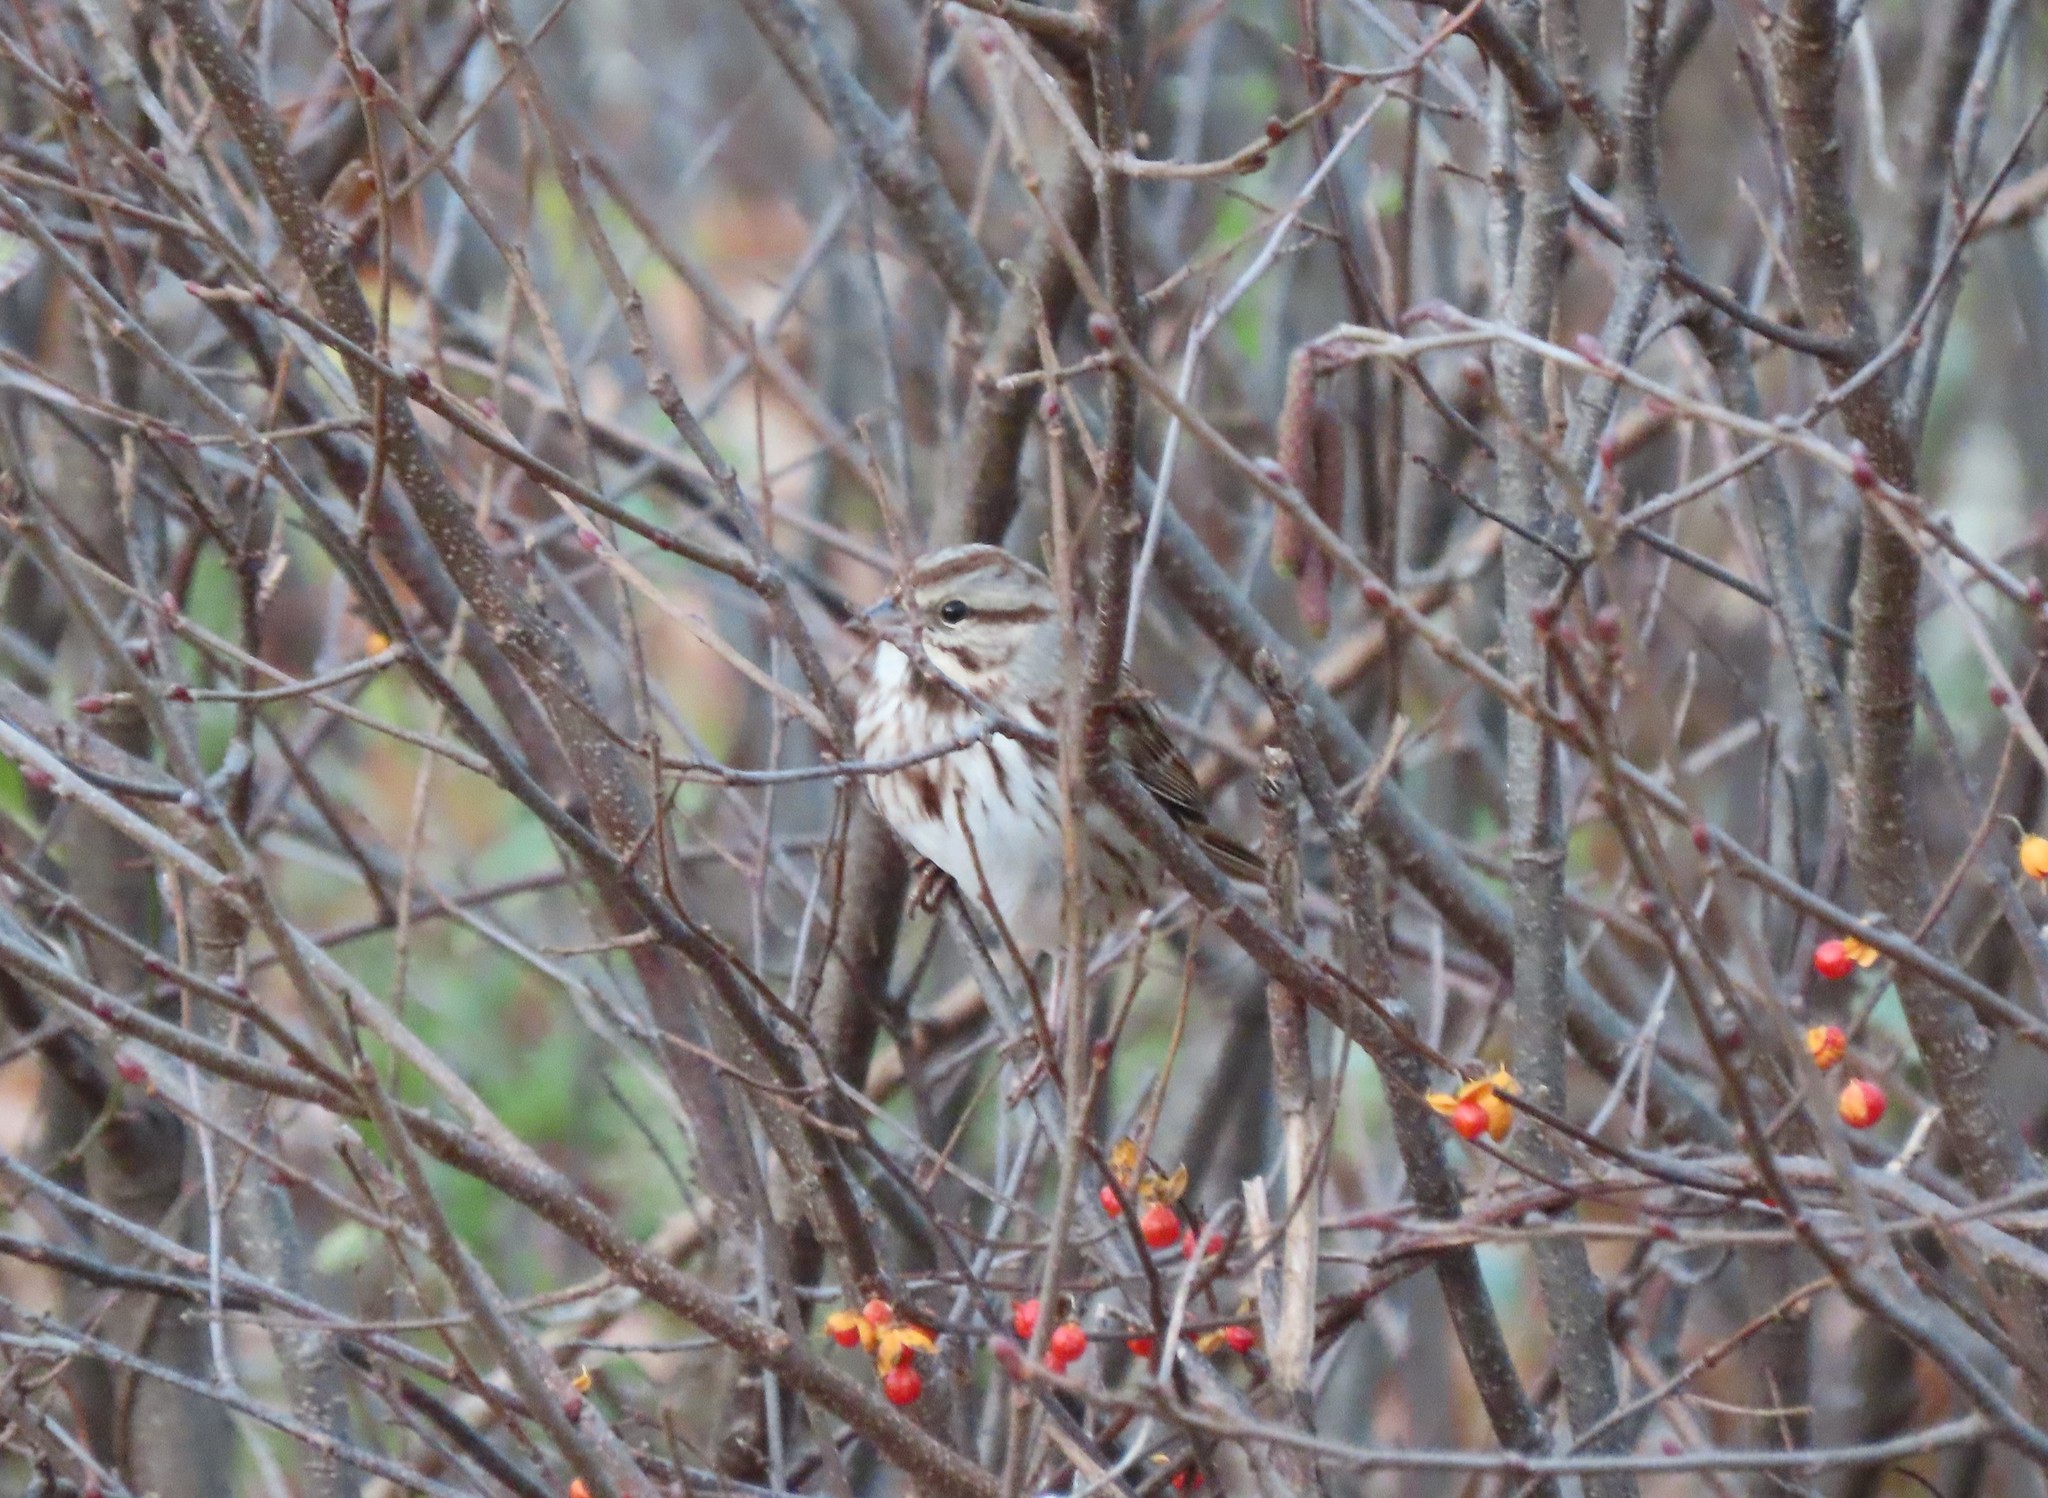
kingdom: Animalia
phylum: Chordata
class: Aves
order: Passeriformes
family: Passerellidae
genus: Melospiza
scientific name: Melospiza melodia
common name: Song sparrow
